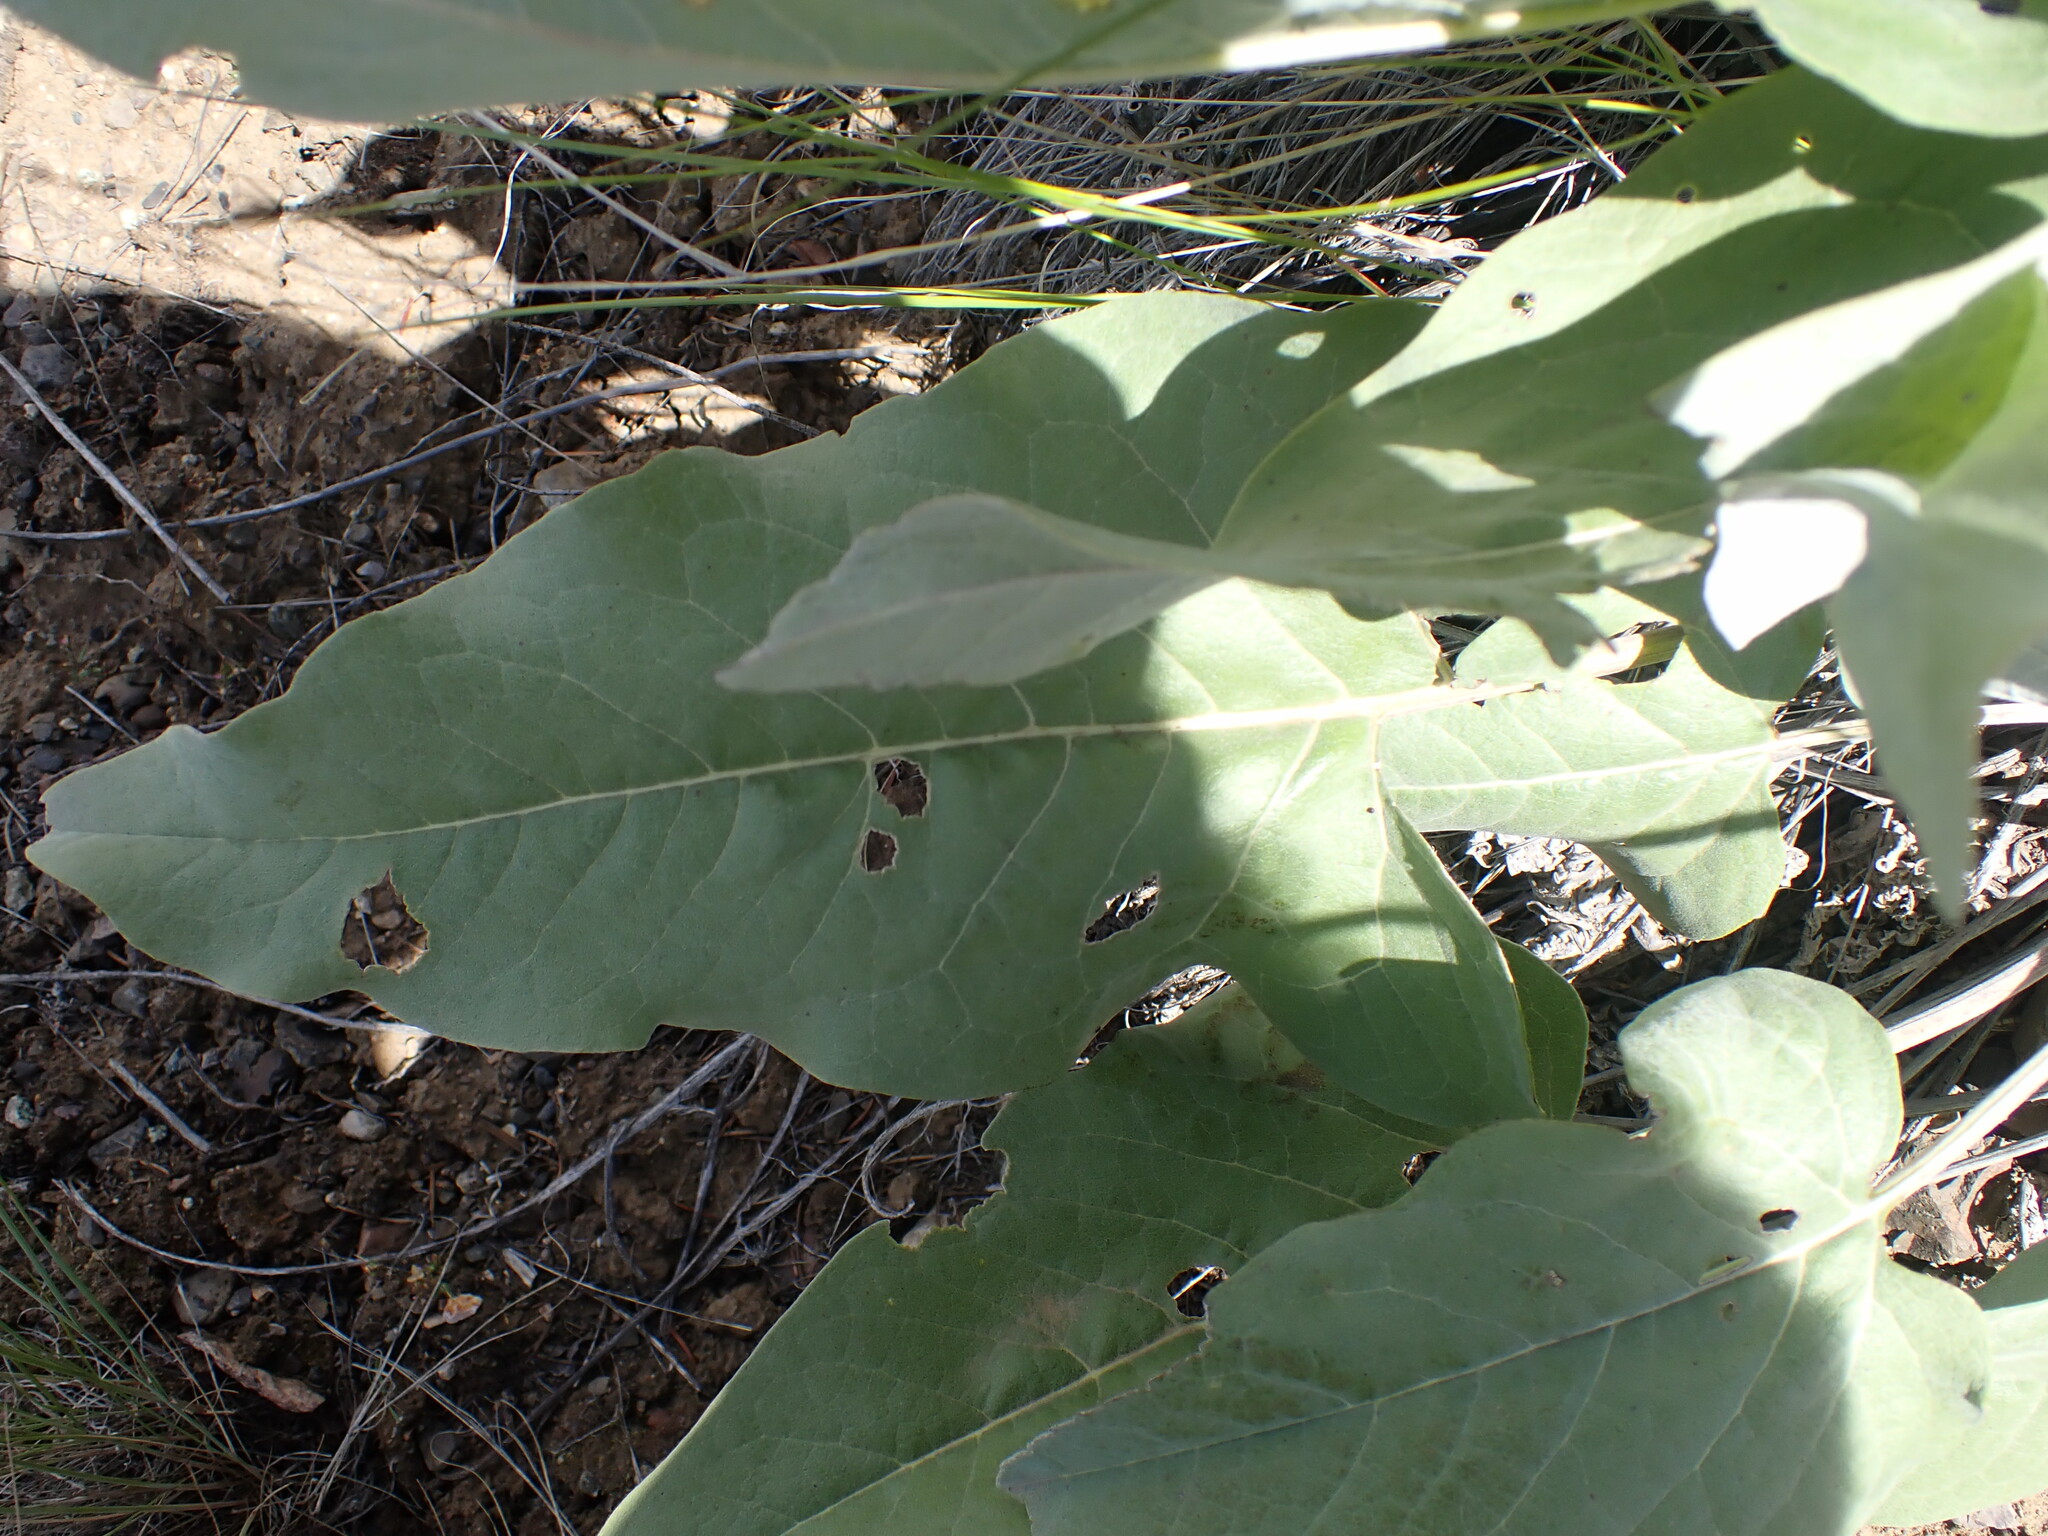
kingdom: Plantae
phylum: Tracheophyta
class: Magnoliopsida
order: Asterales
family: Asteraceae
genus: Wyethia
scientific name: Wyethia sagittata
